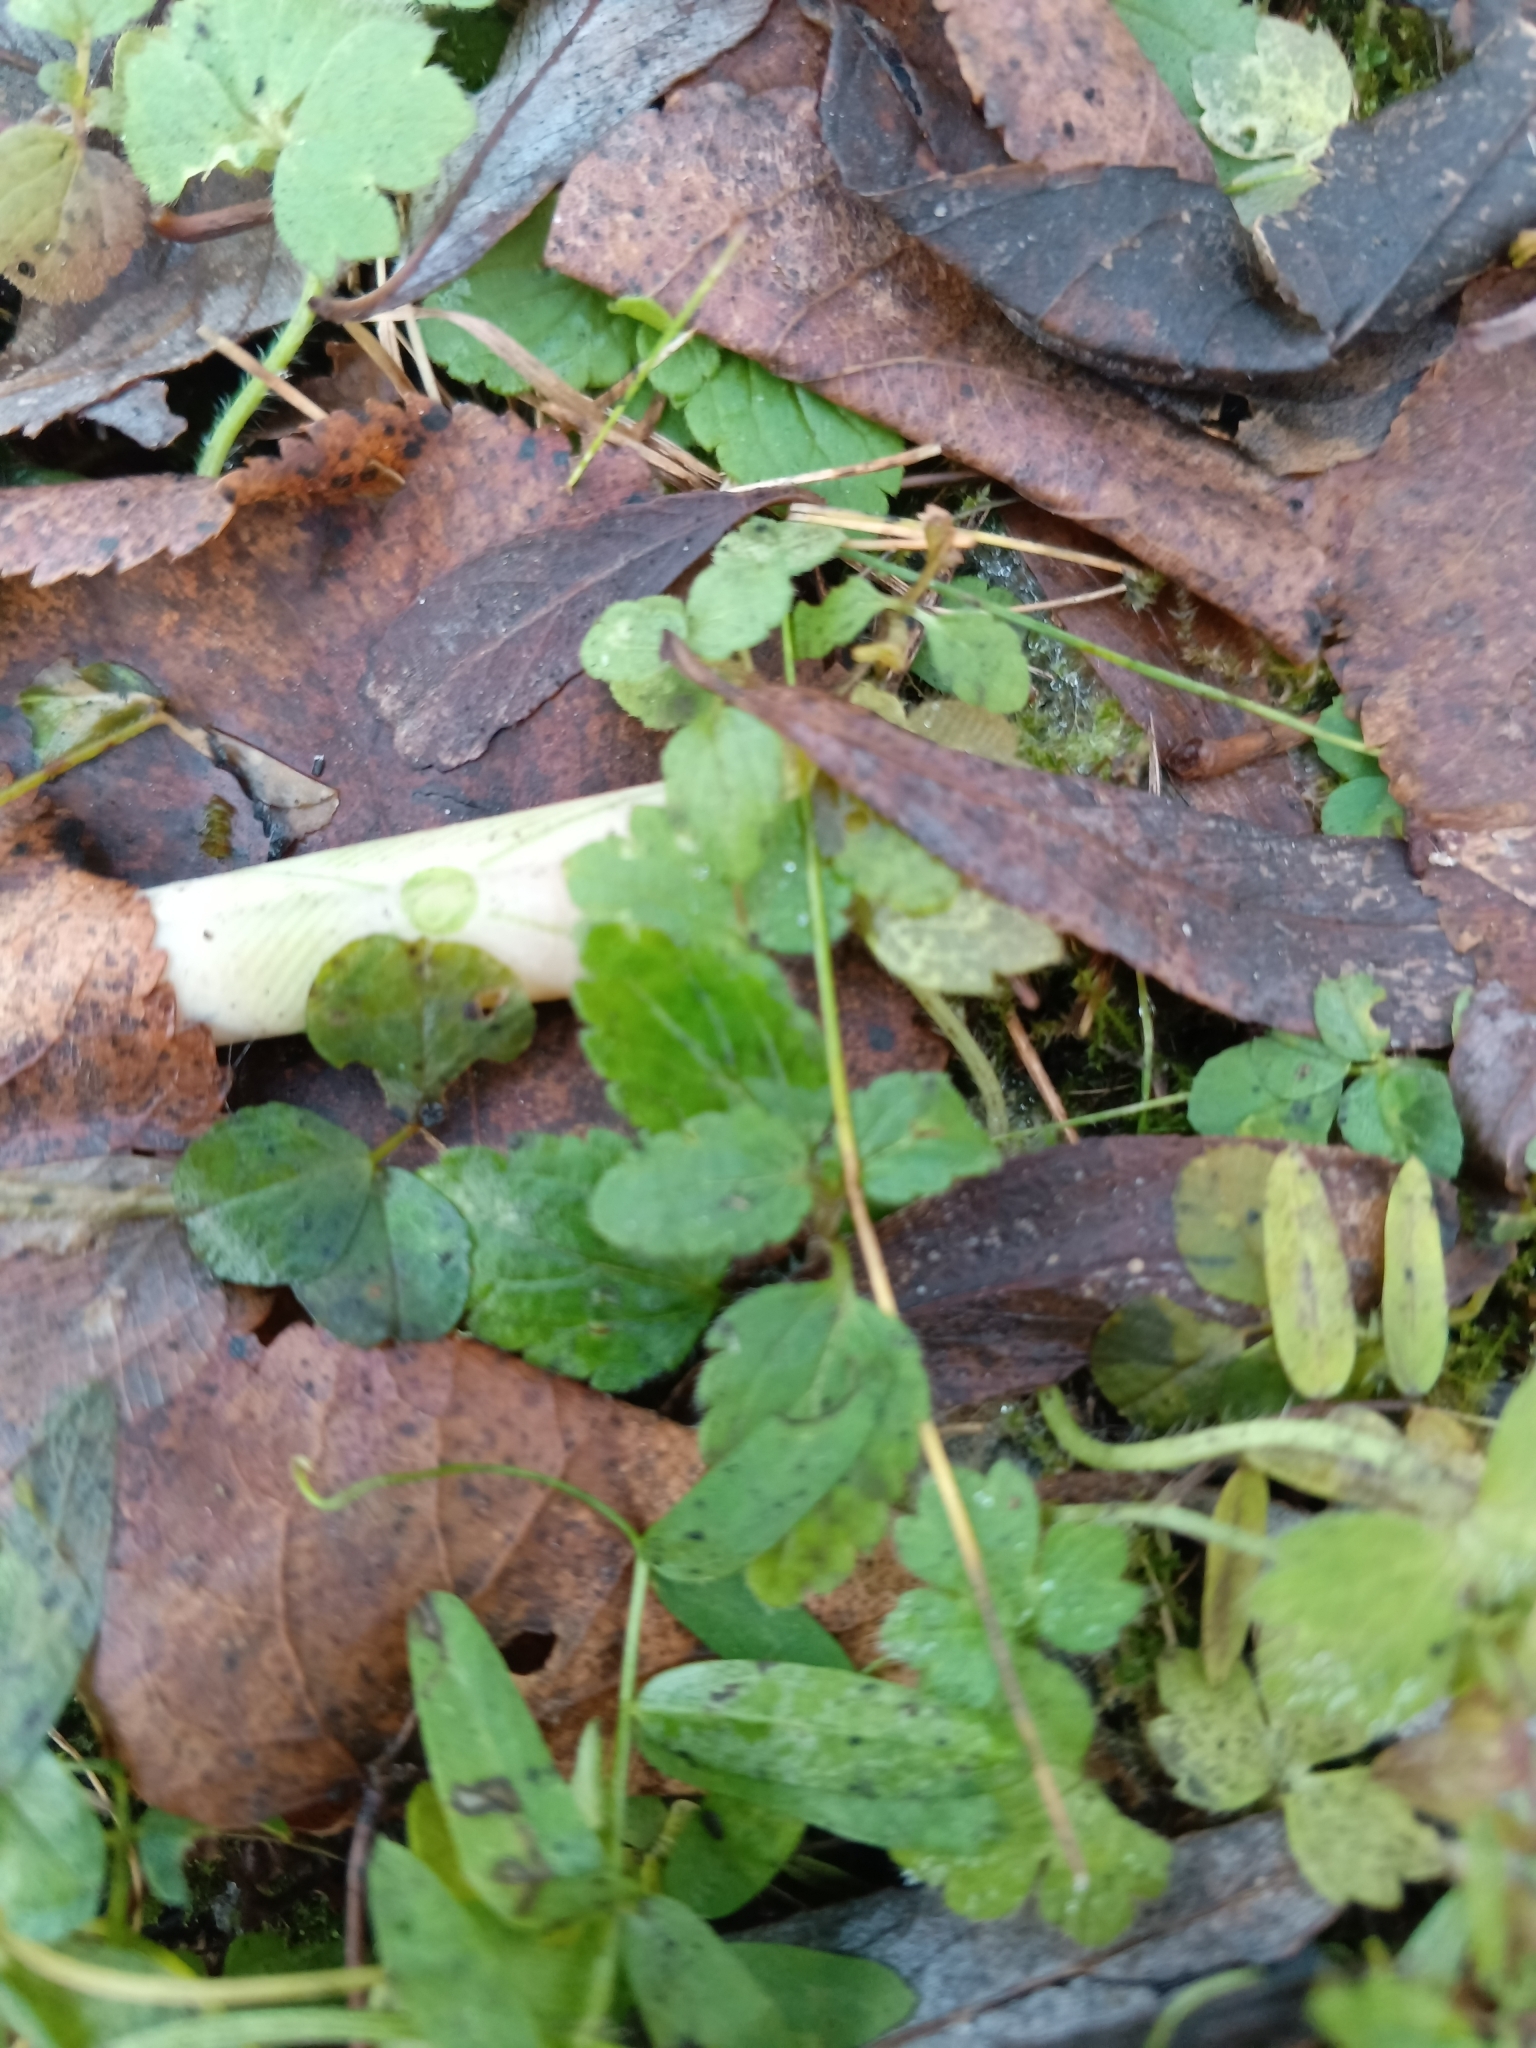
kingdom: Plantae
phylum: Tracheophyta
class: Magnoliopsida
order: Lamiales
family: Plantaginaceae
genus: Veronica
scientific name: Veronica chamaedrys
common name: Germander speedwell
